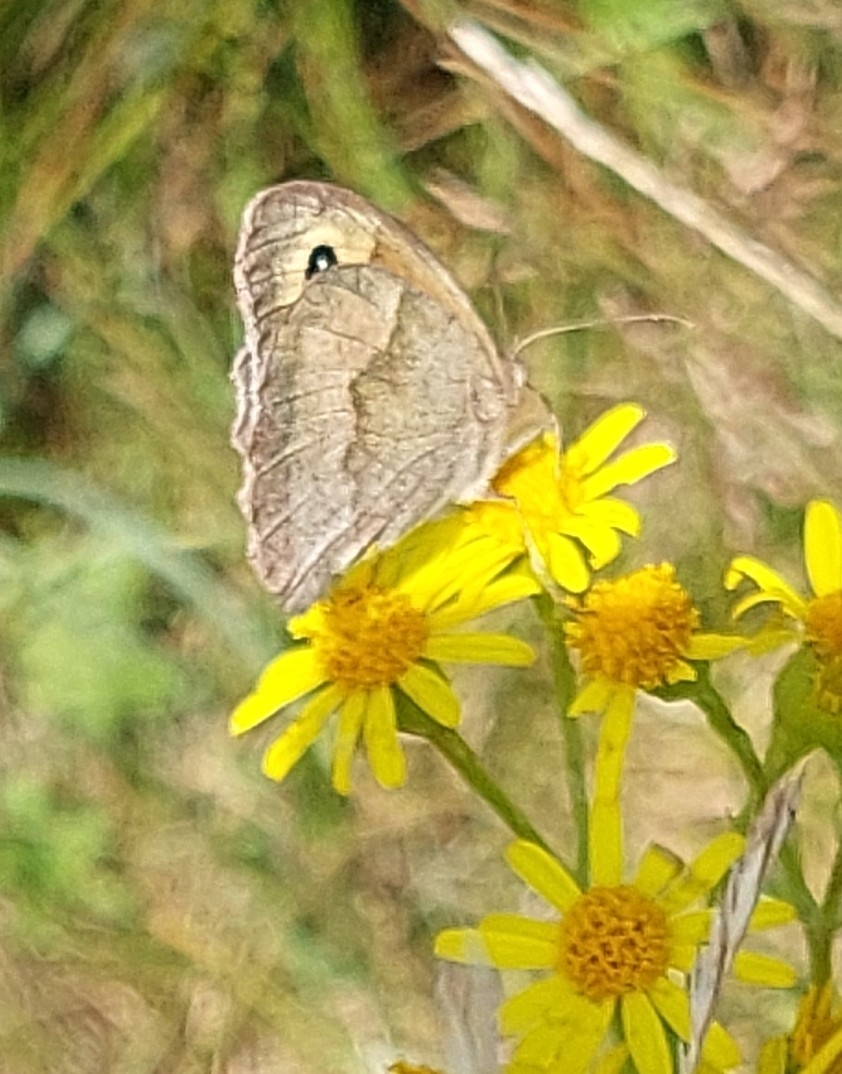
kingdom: Animalia
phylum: Arthropoda
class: Insecta
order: Lepidoptera
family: Nymphalidae
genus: Maniola
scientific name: Maniola jurtina
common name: Meadow brown
